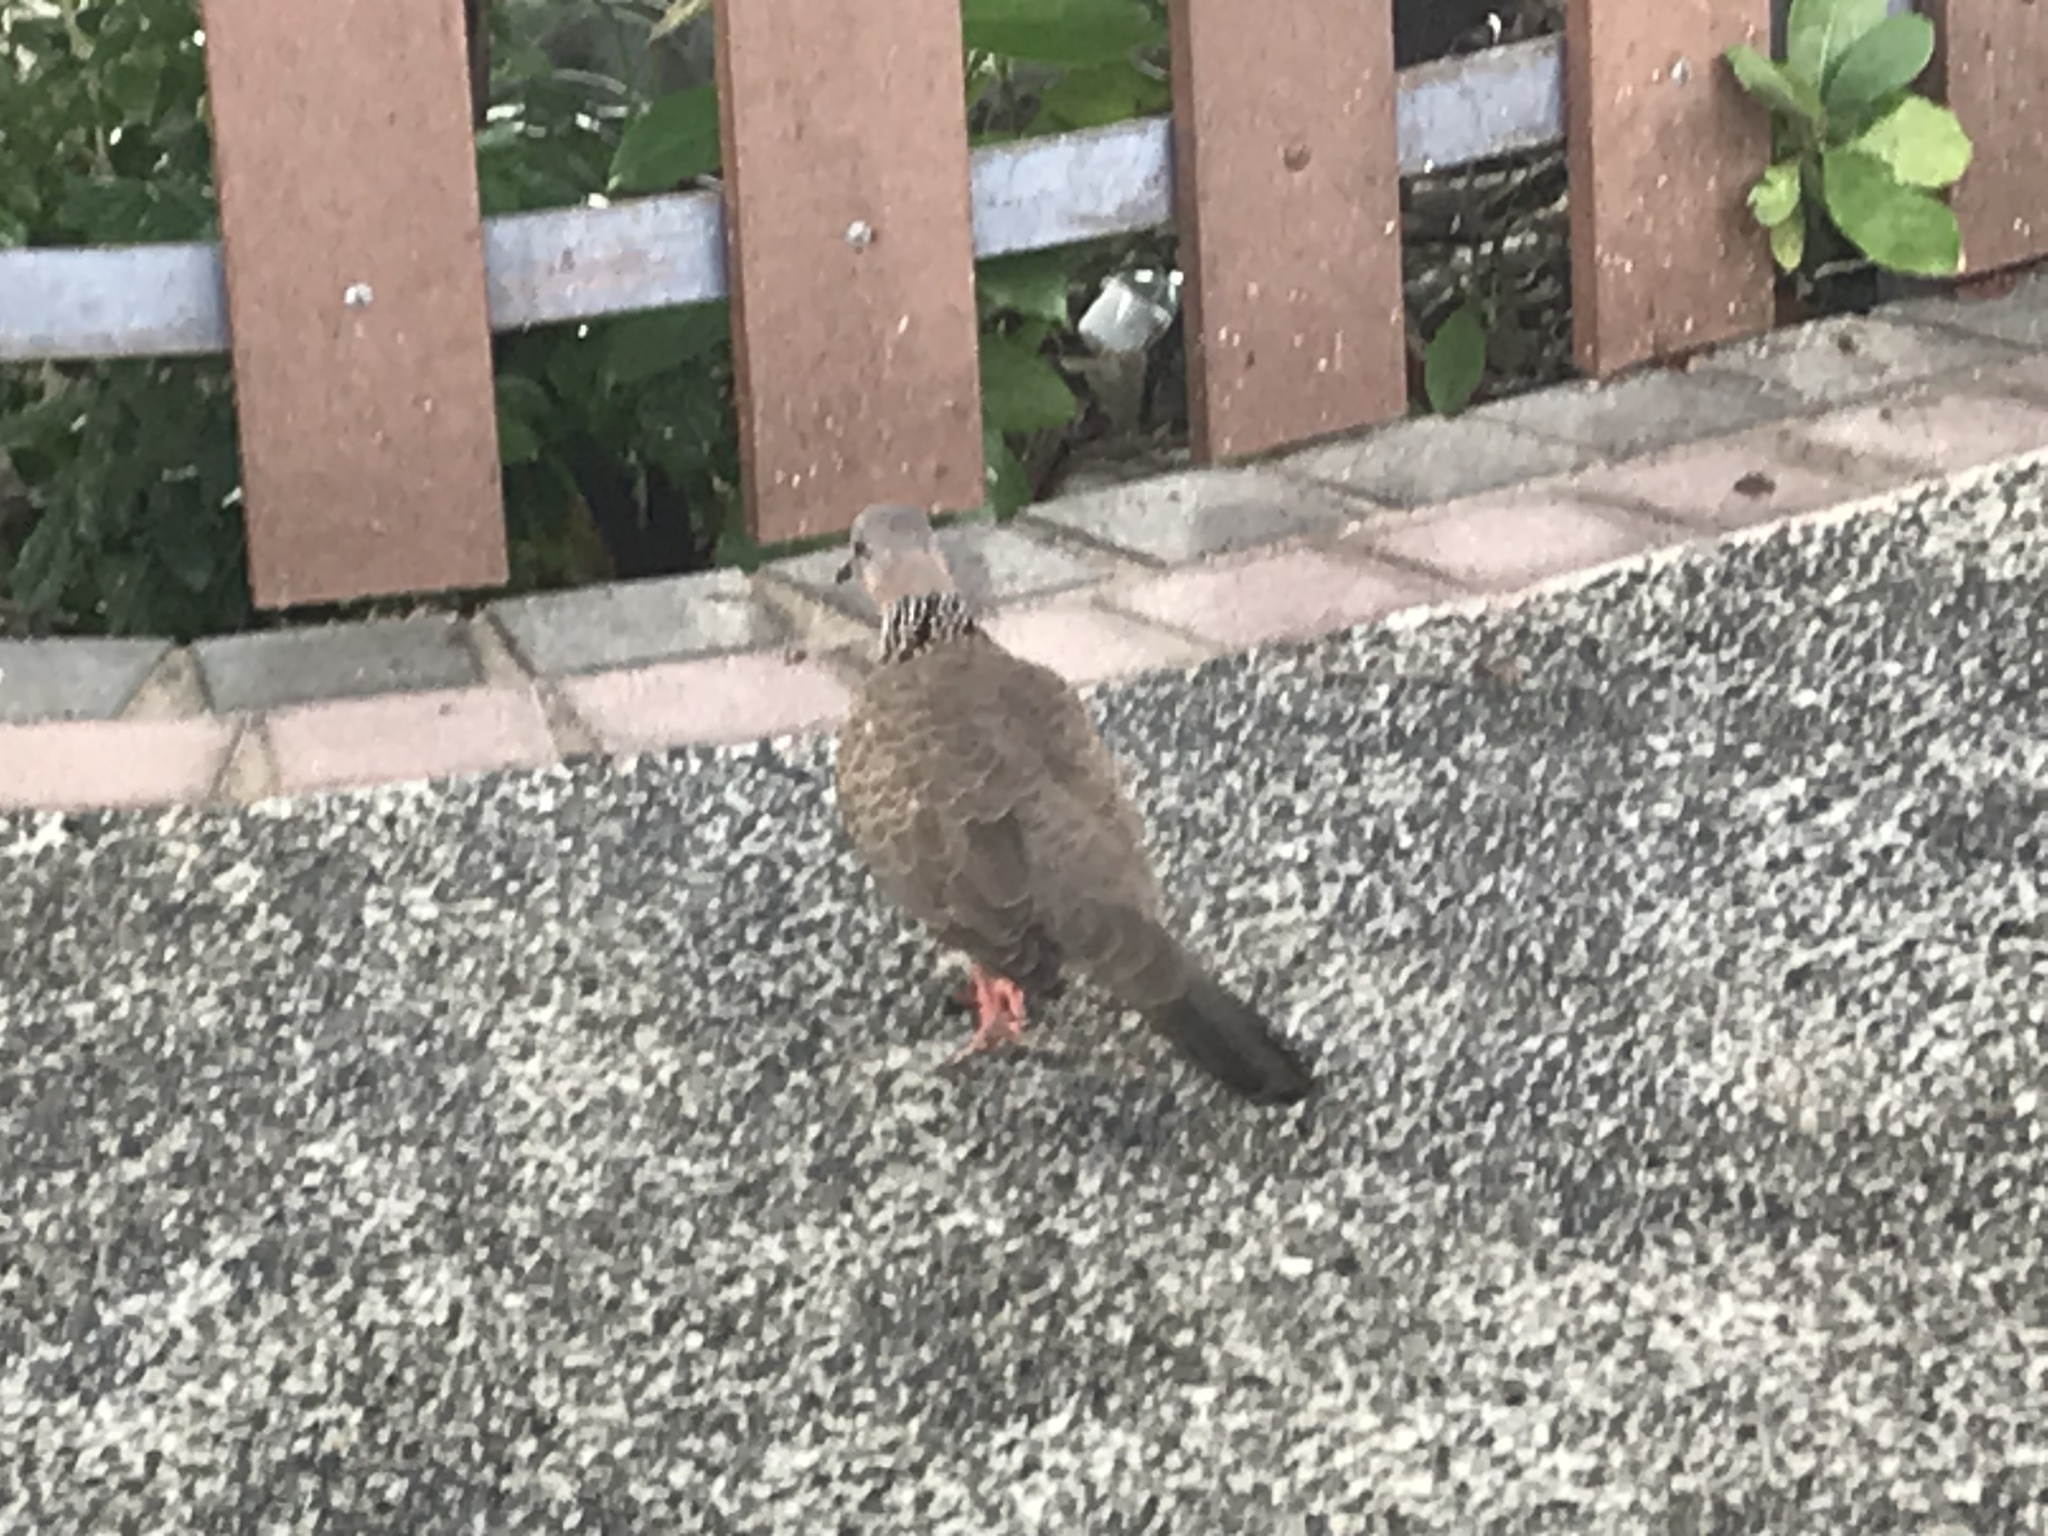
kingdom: Animalia
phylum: Chordata
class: Aves
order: Columbiformes
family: Columbidae
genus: Spilopelia
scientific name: Spilopelia chinensis
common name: Spotted dove
